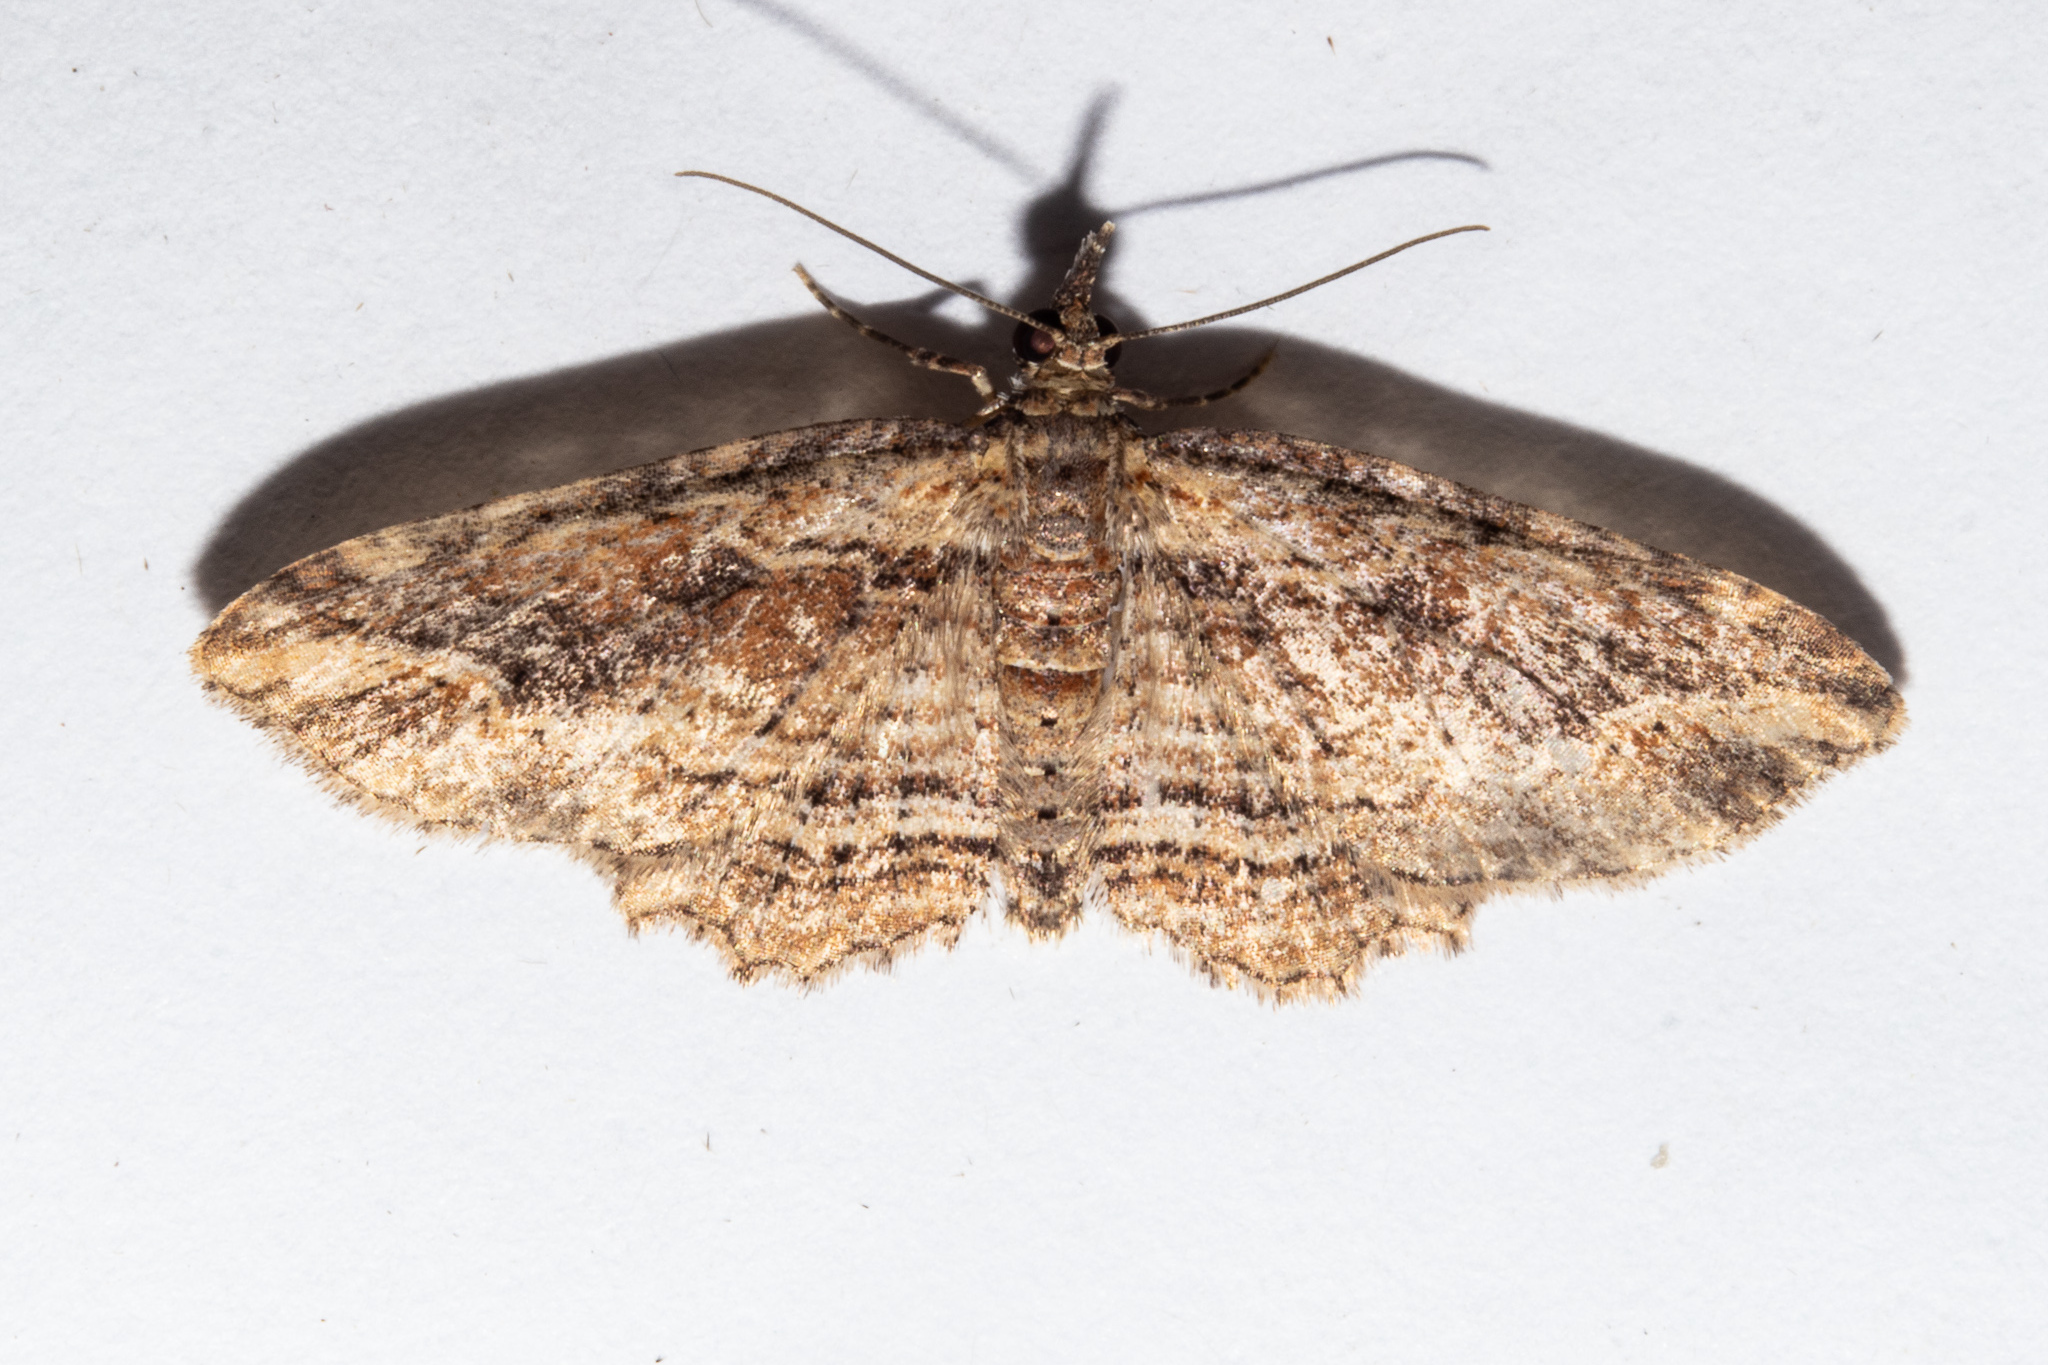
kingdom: Animalia
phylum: Arthropoda
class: Insecta
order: Lepidoptera
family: Geometridae
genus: Chloroclystis
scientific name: Chloroclystis filata
